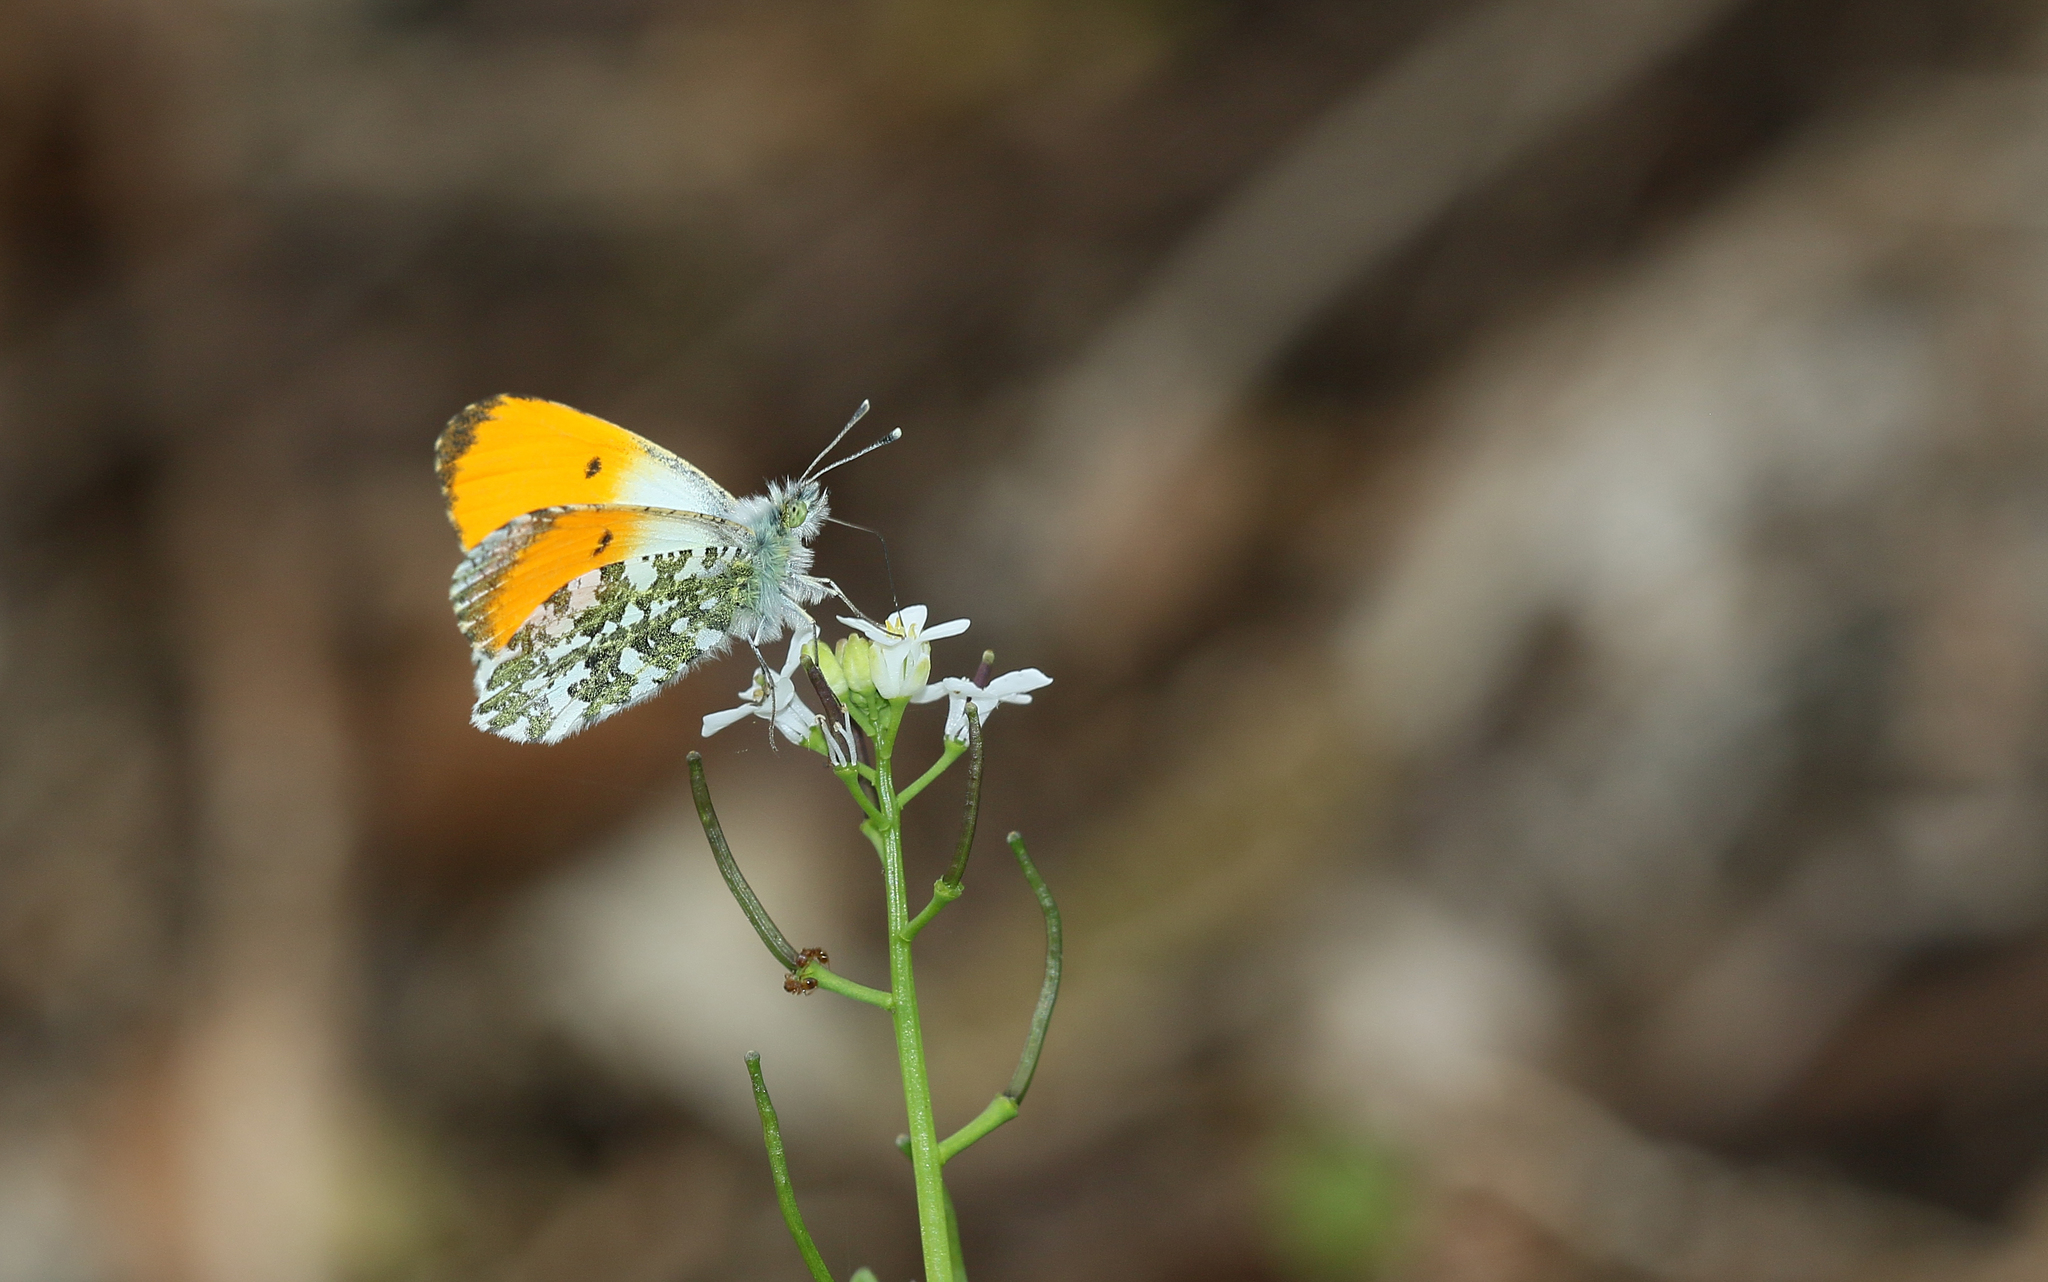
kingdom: Animalia
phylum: Arthropoda
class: Insecta
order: Lepidoptera
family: Pieridae
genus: Anthocharis
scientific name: Anthocharis cardamines
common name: Orange-tip
